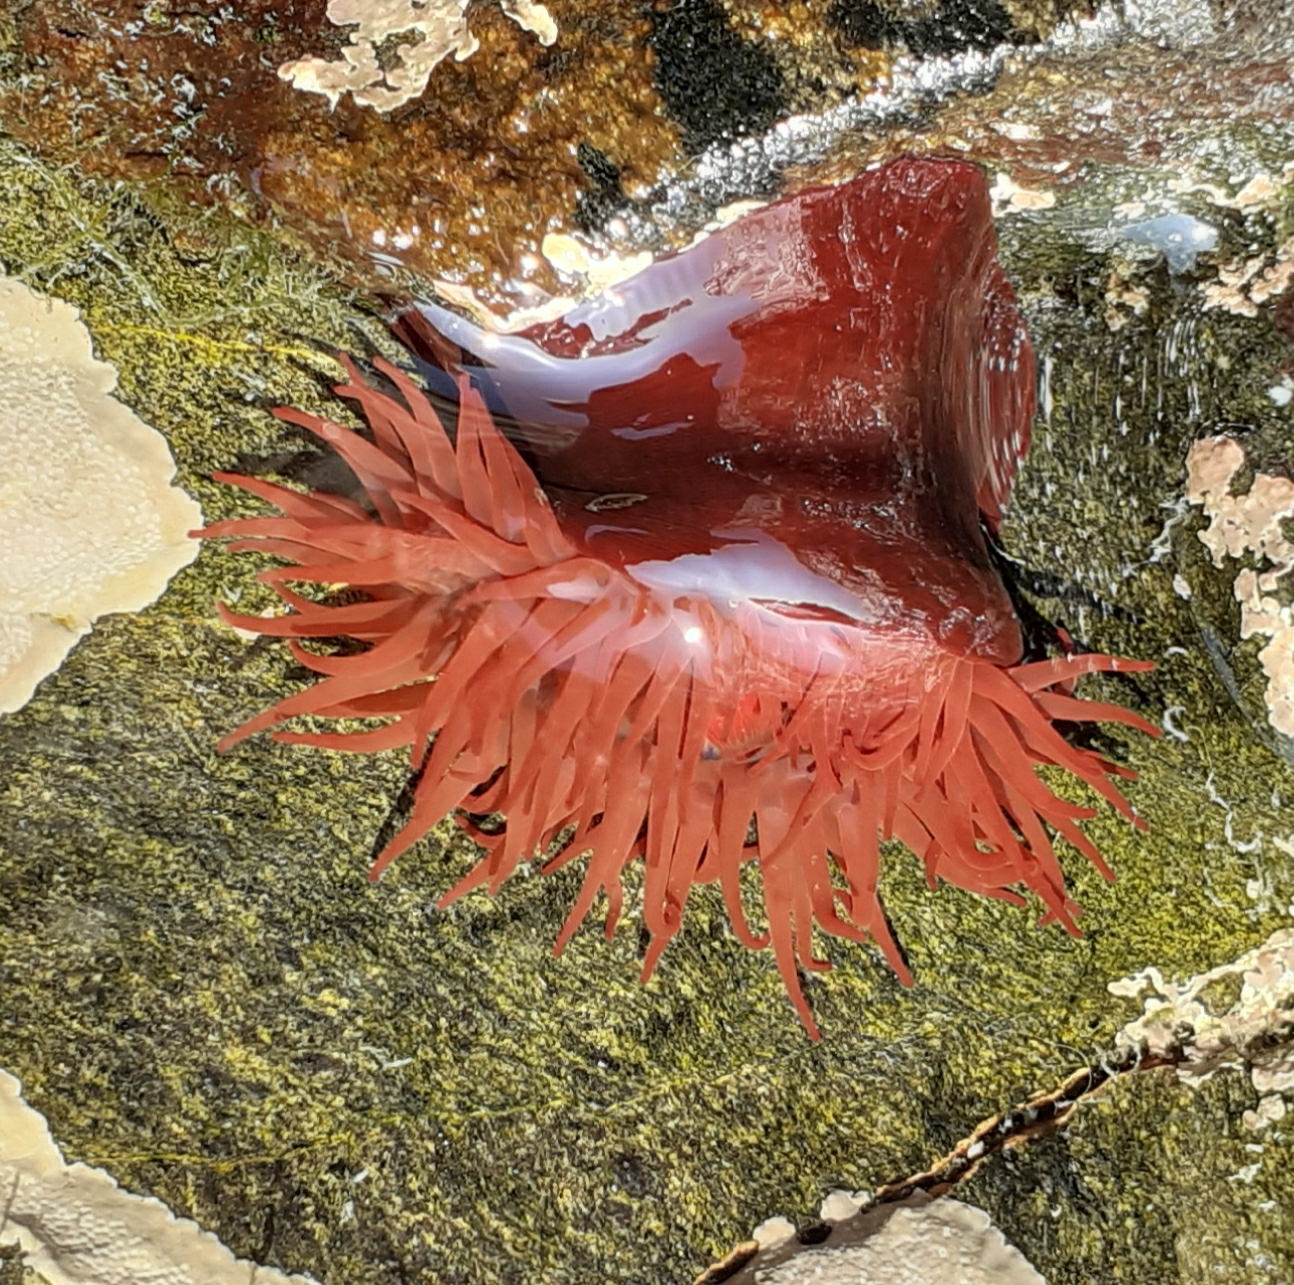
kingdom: Animalia
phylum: Cnidaria
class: Anthozoa
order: Actiniaria
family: Actiniidae
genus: Actinia
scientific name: Actinia equina
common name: Beadlet anemone
